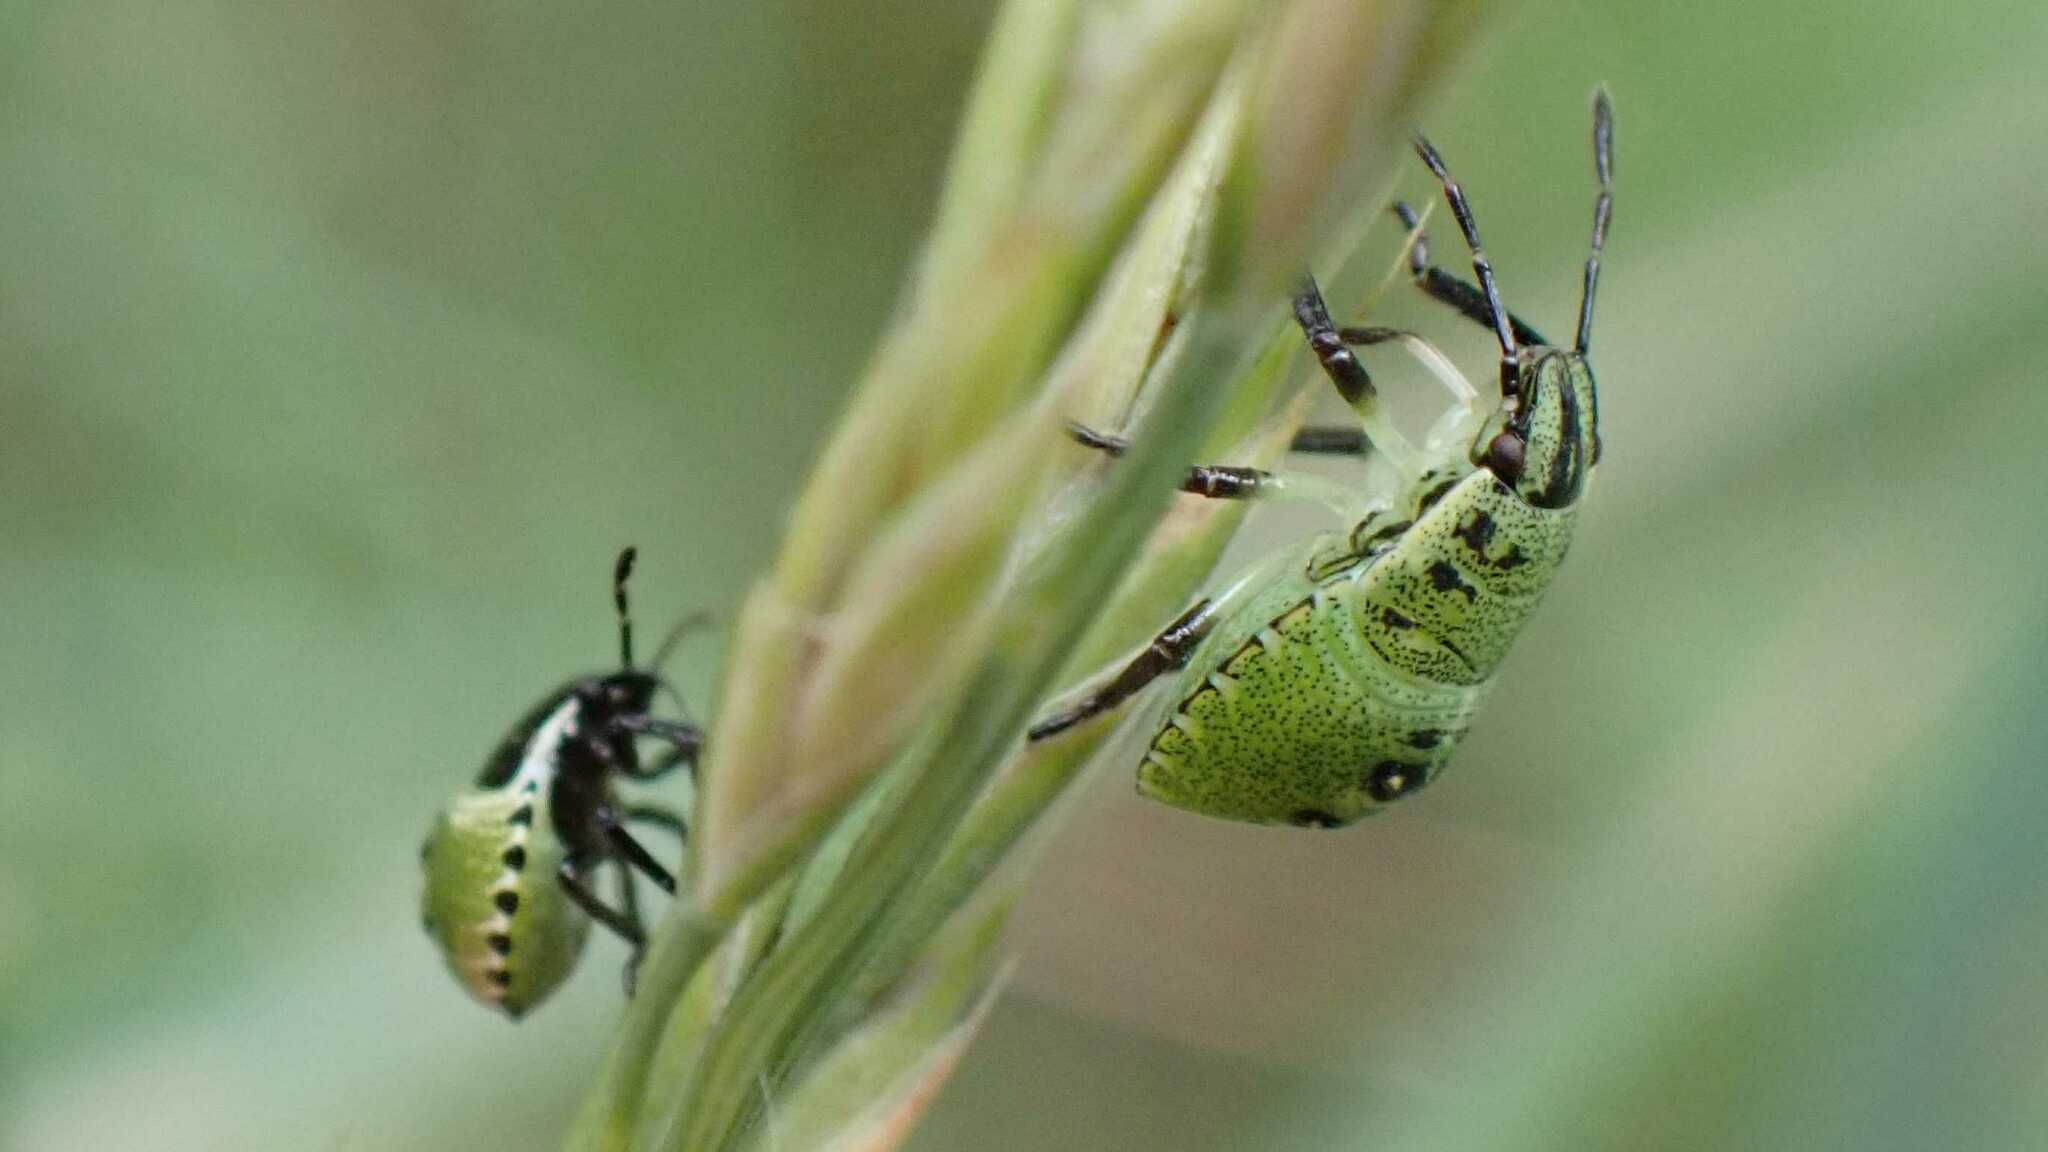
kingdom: Animalia
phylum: Arthropoda
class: Insecta
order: Hemiptera
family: Pentatomidae
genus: Palomena
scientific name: Palomena prasina
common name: Green shieldbug
